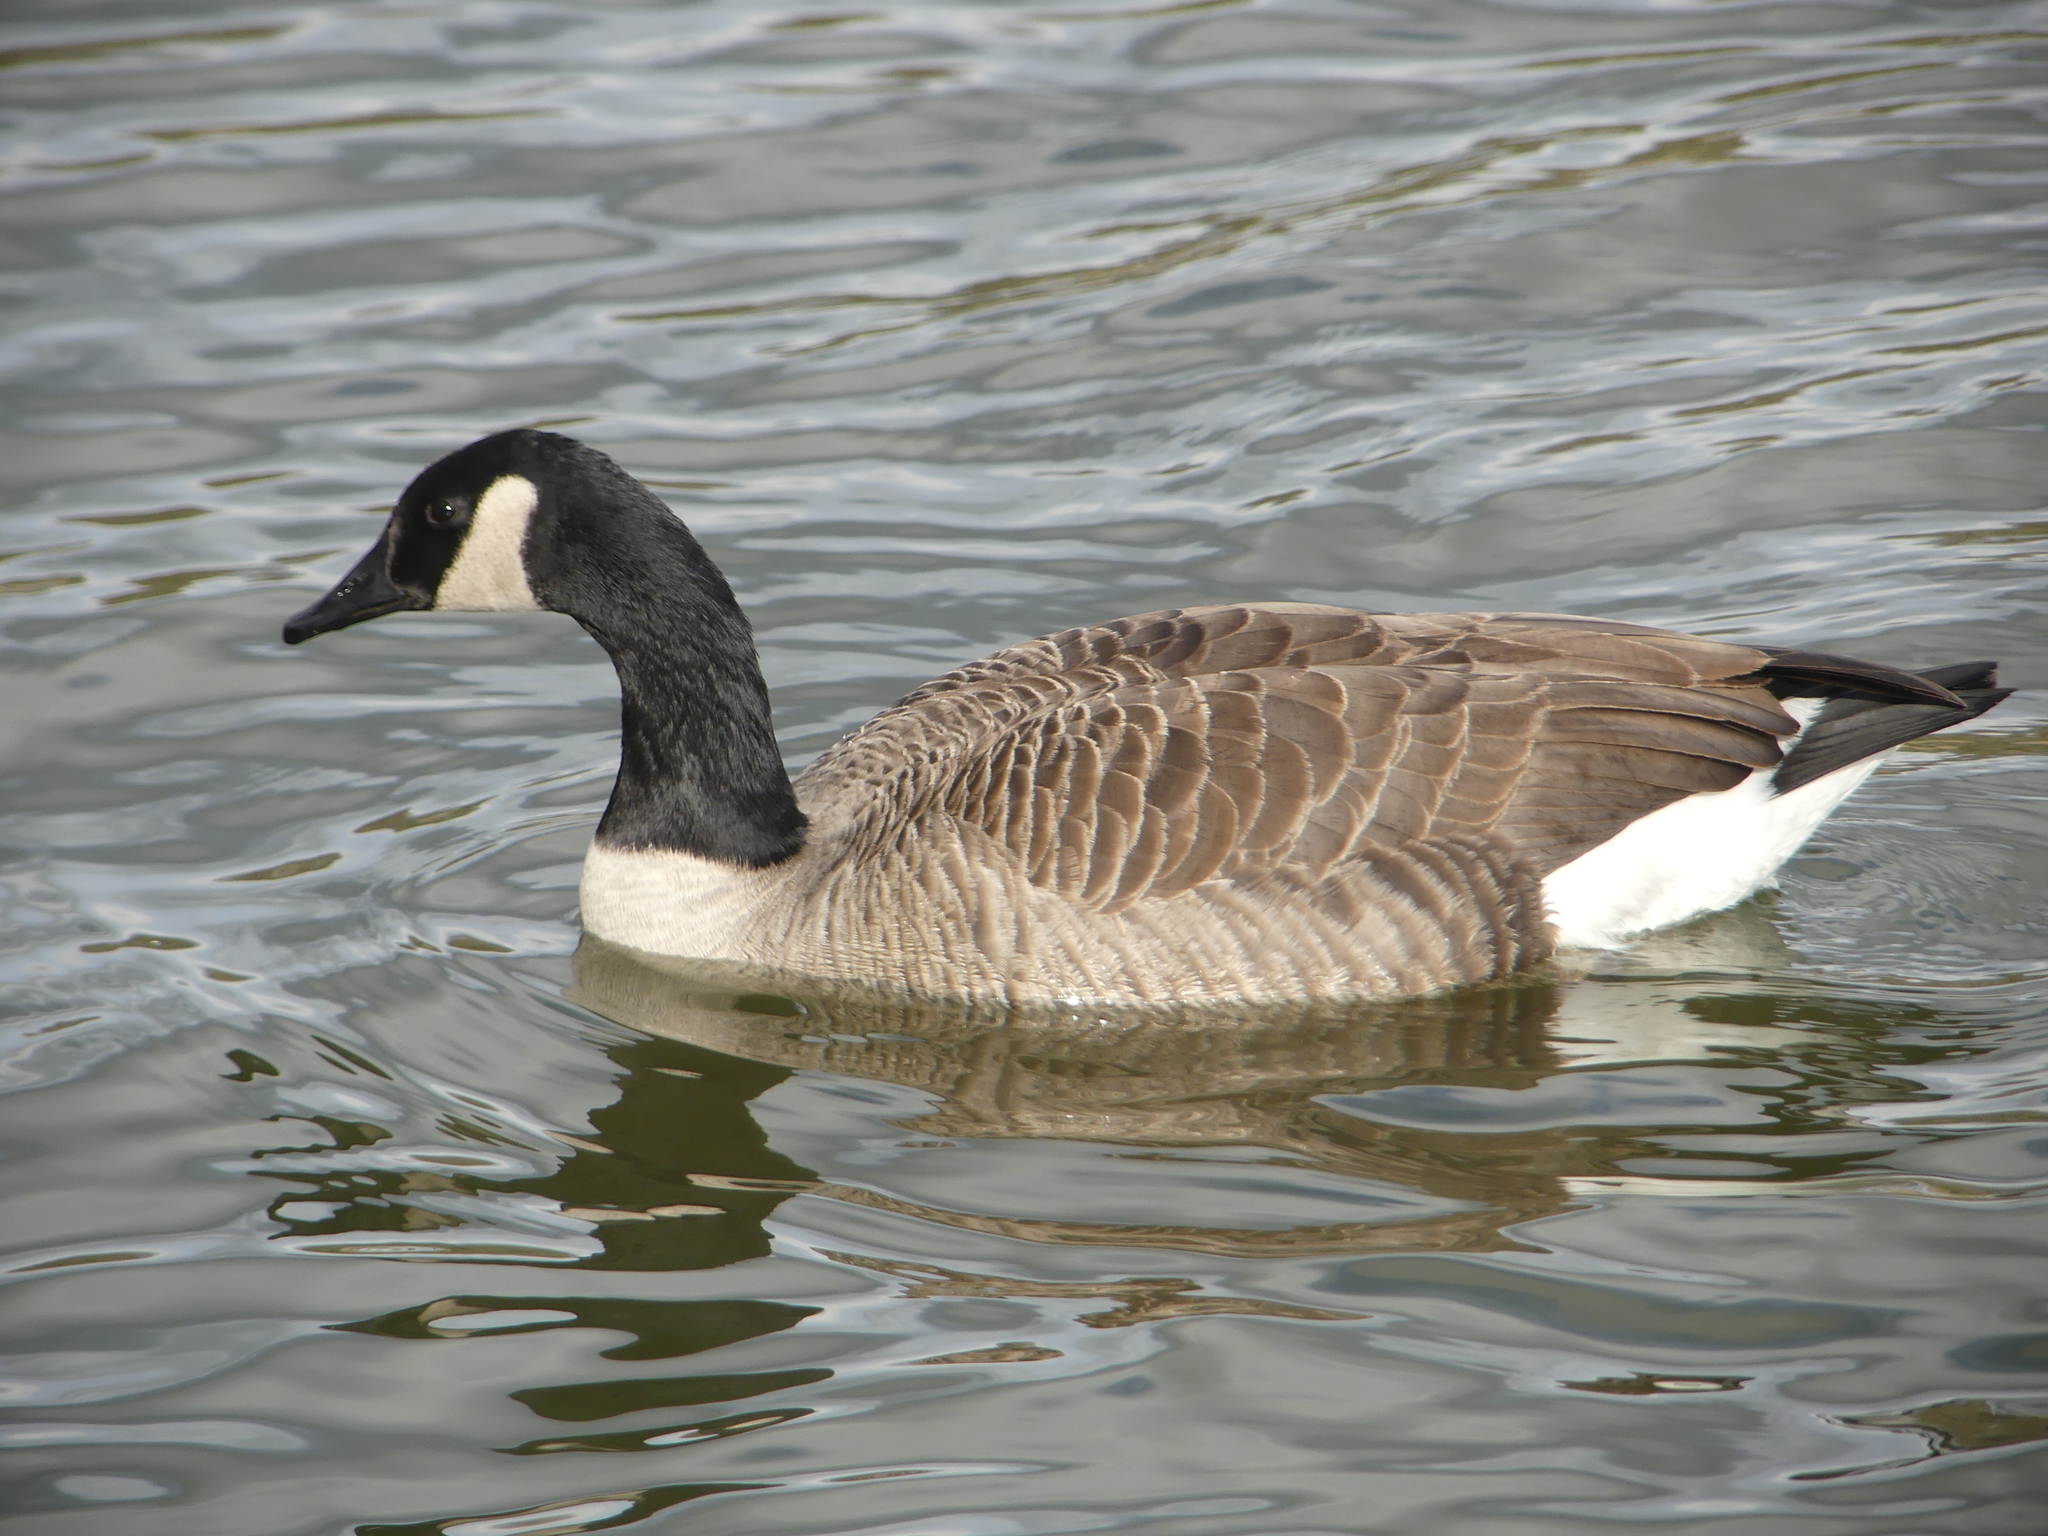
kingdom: Animalia
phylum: Chordata
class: Aves
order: Anseriformes
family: Anatidae
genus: Branta
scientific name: Branta canadensis
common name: Canada goose
